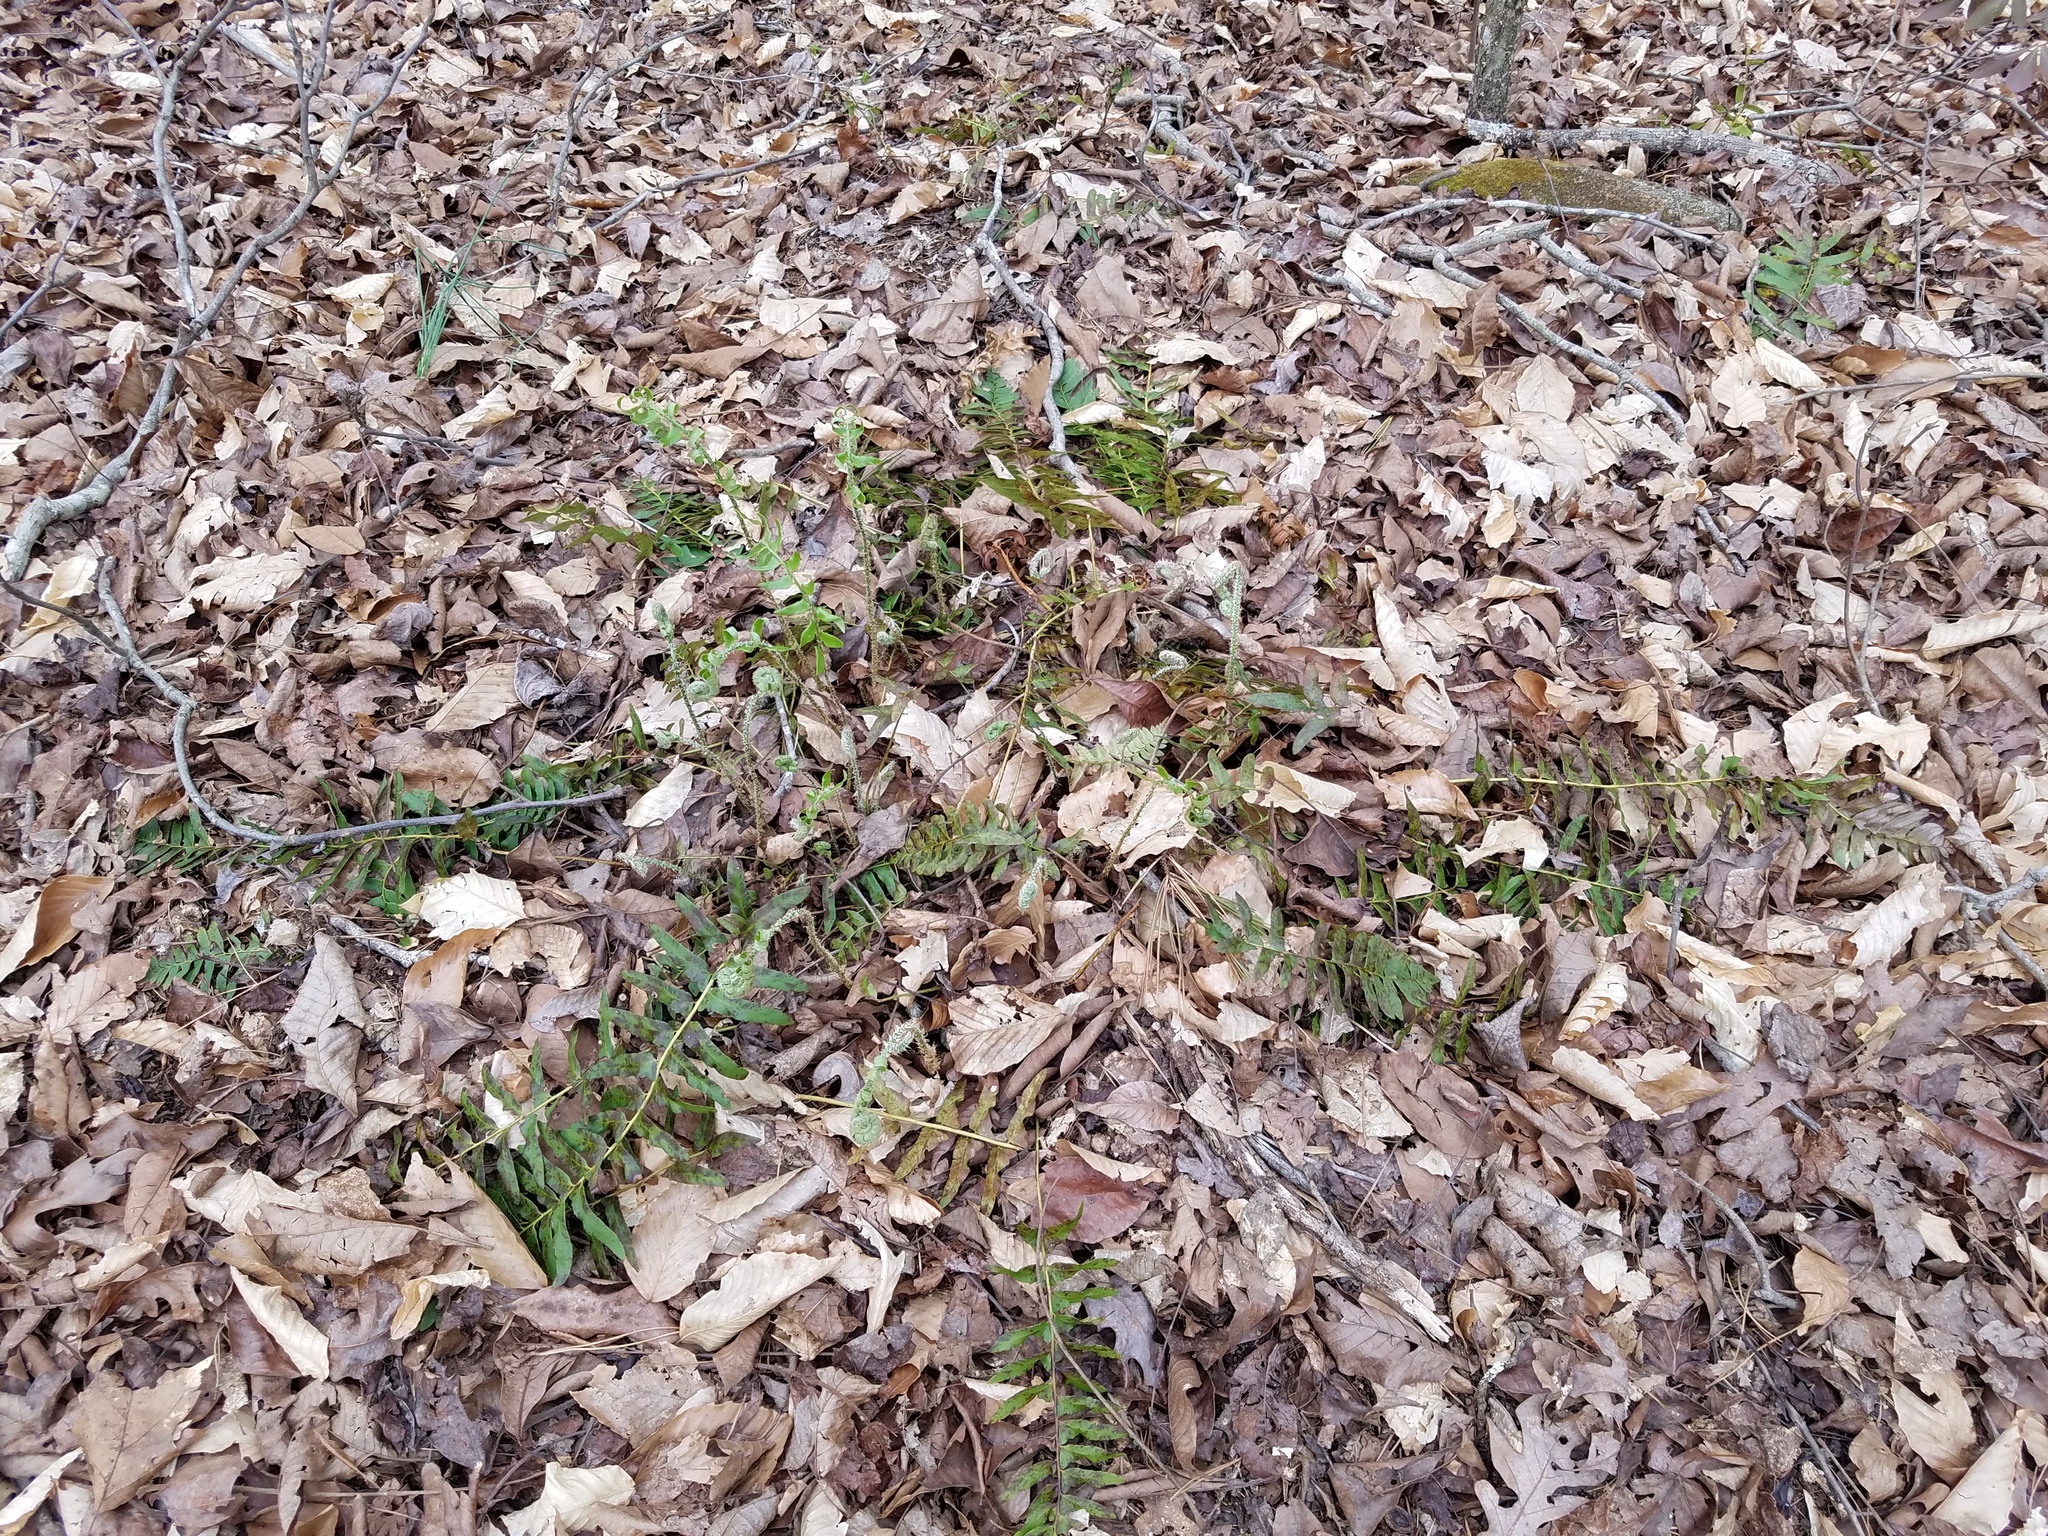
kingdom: Plantae
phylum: Tracheophyta
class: Polypodiopsida
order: Polypodiales
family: Dryopteridaceae
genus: Polystichum
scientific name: Polystichum acrostichoides
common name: Christmas fern
